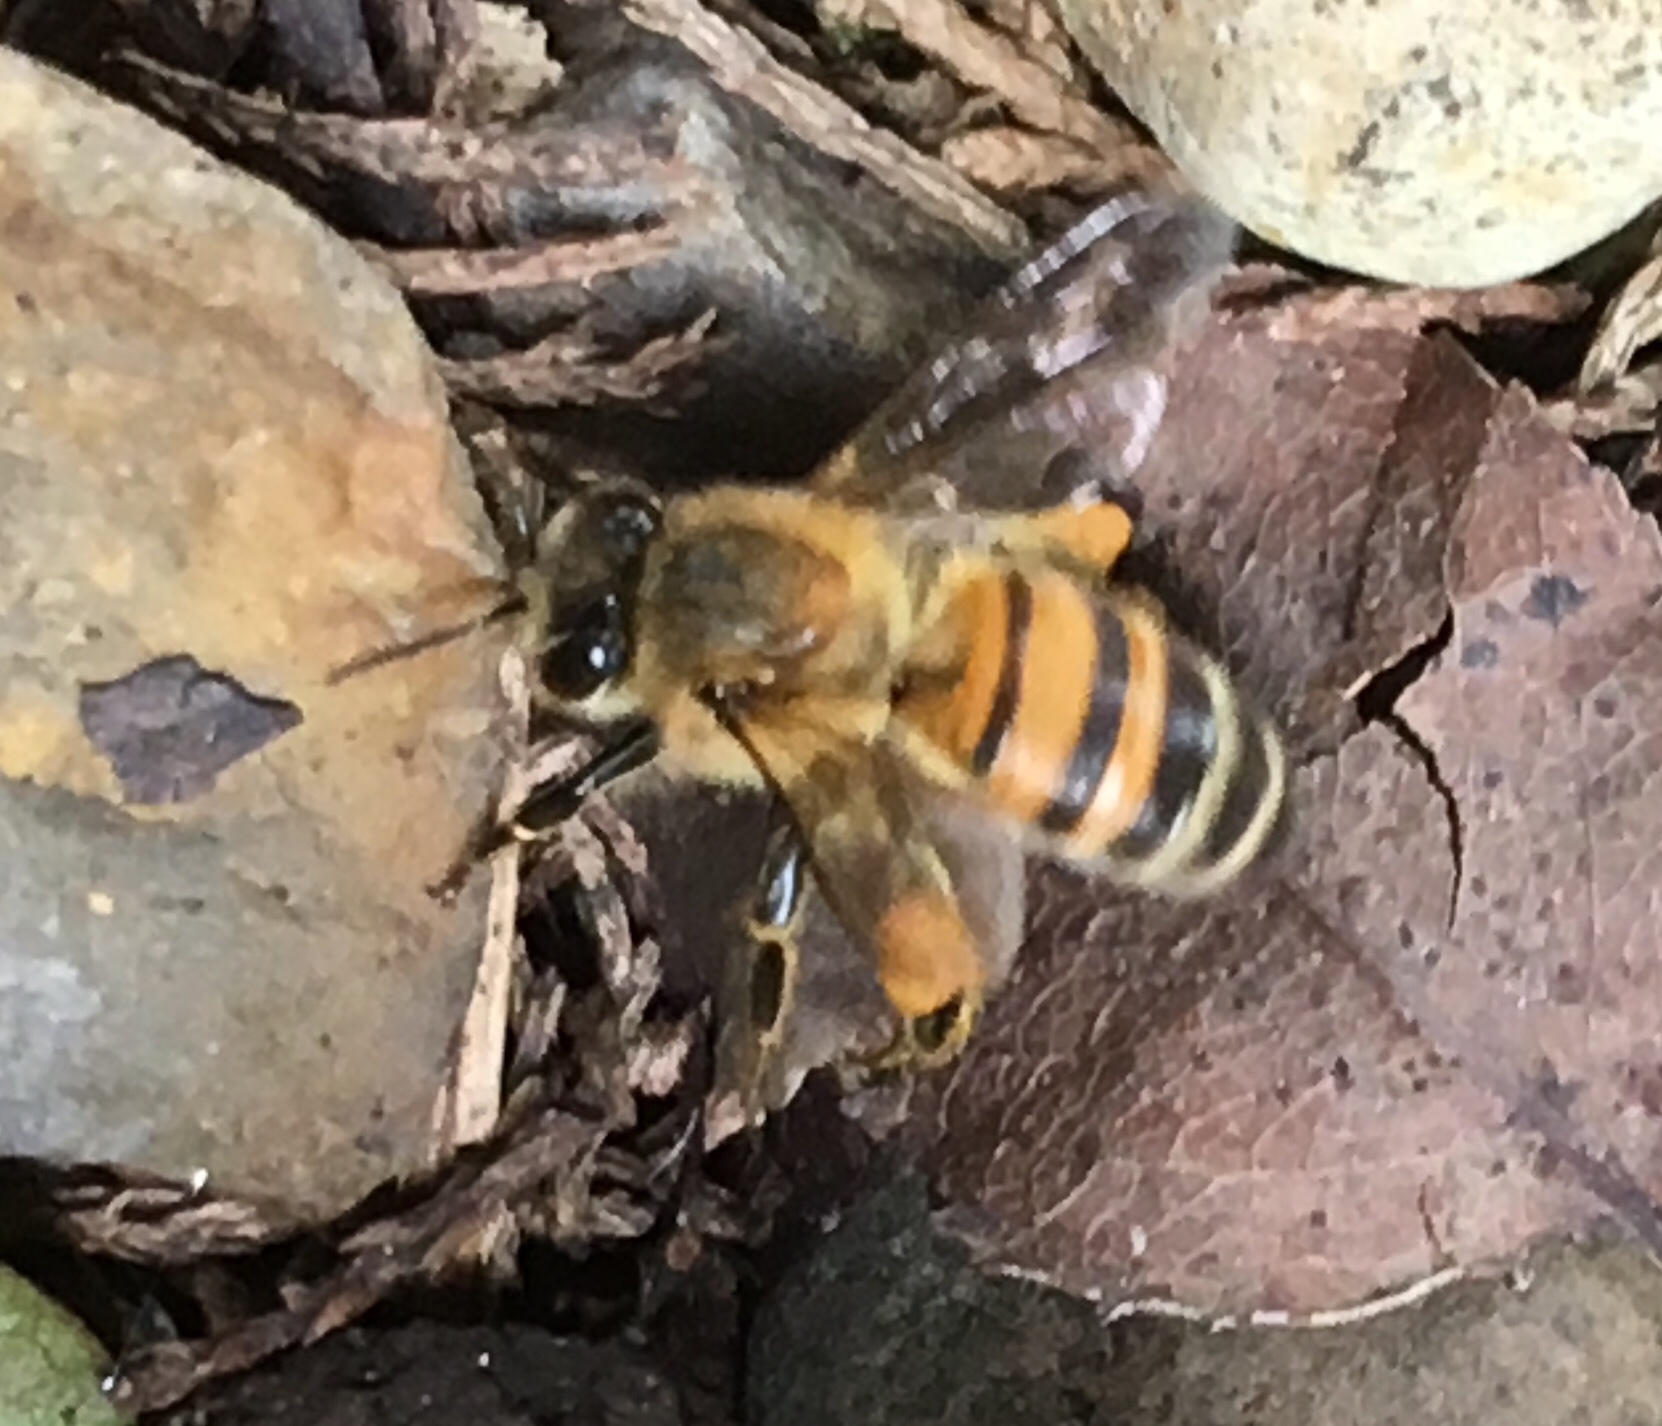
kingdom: Animalia
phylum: Arthropoda
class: Insecta
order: Hymenoptera
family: Apidae
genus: Apis
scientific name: Apis mellifera
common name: Honey bee
